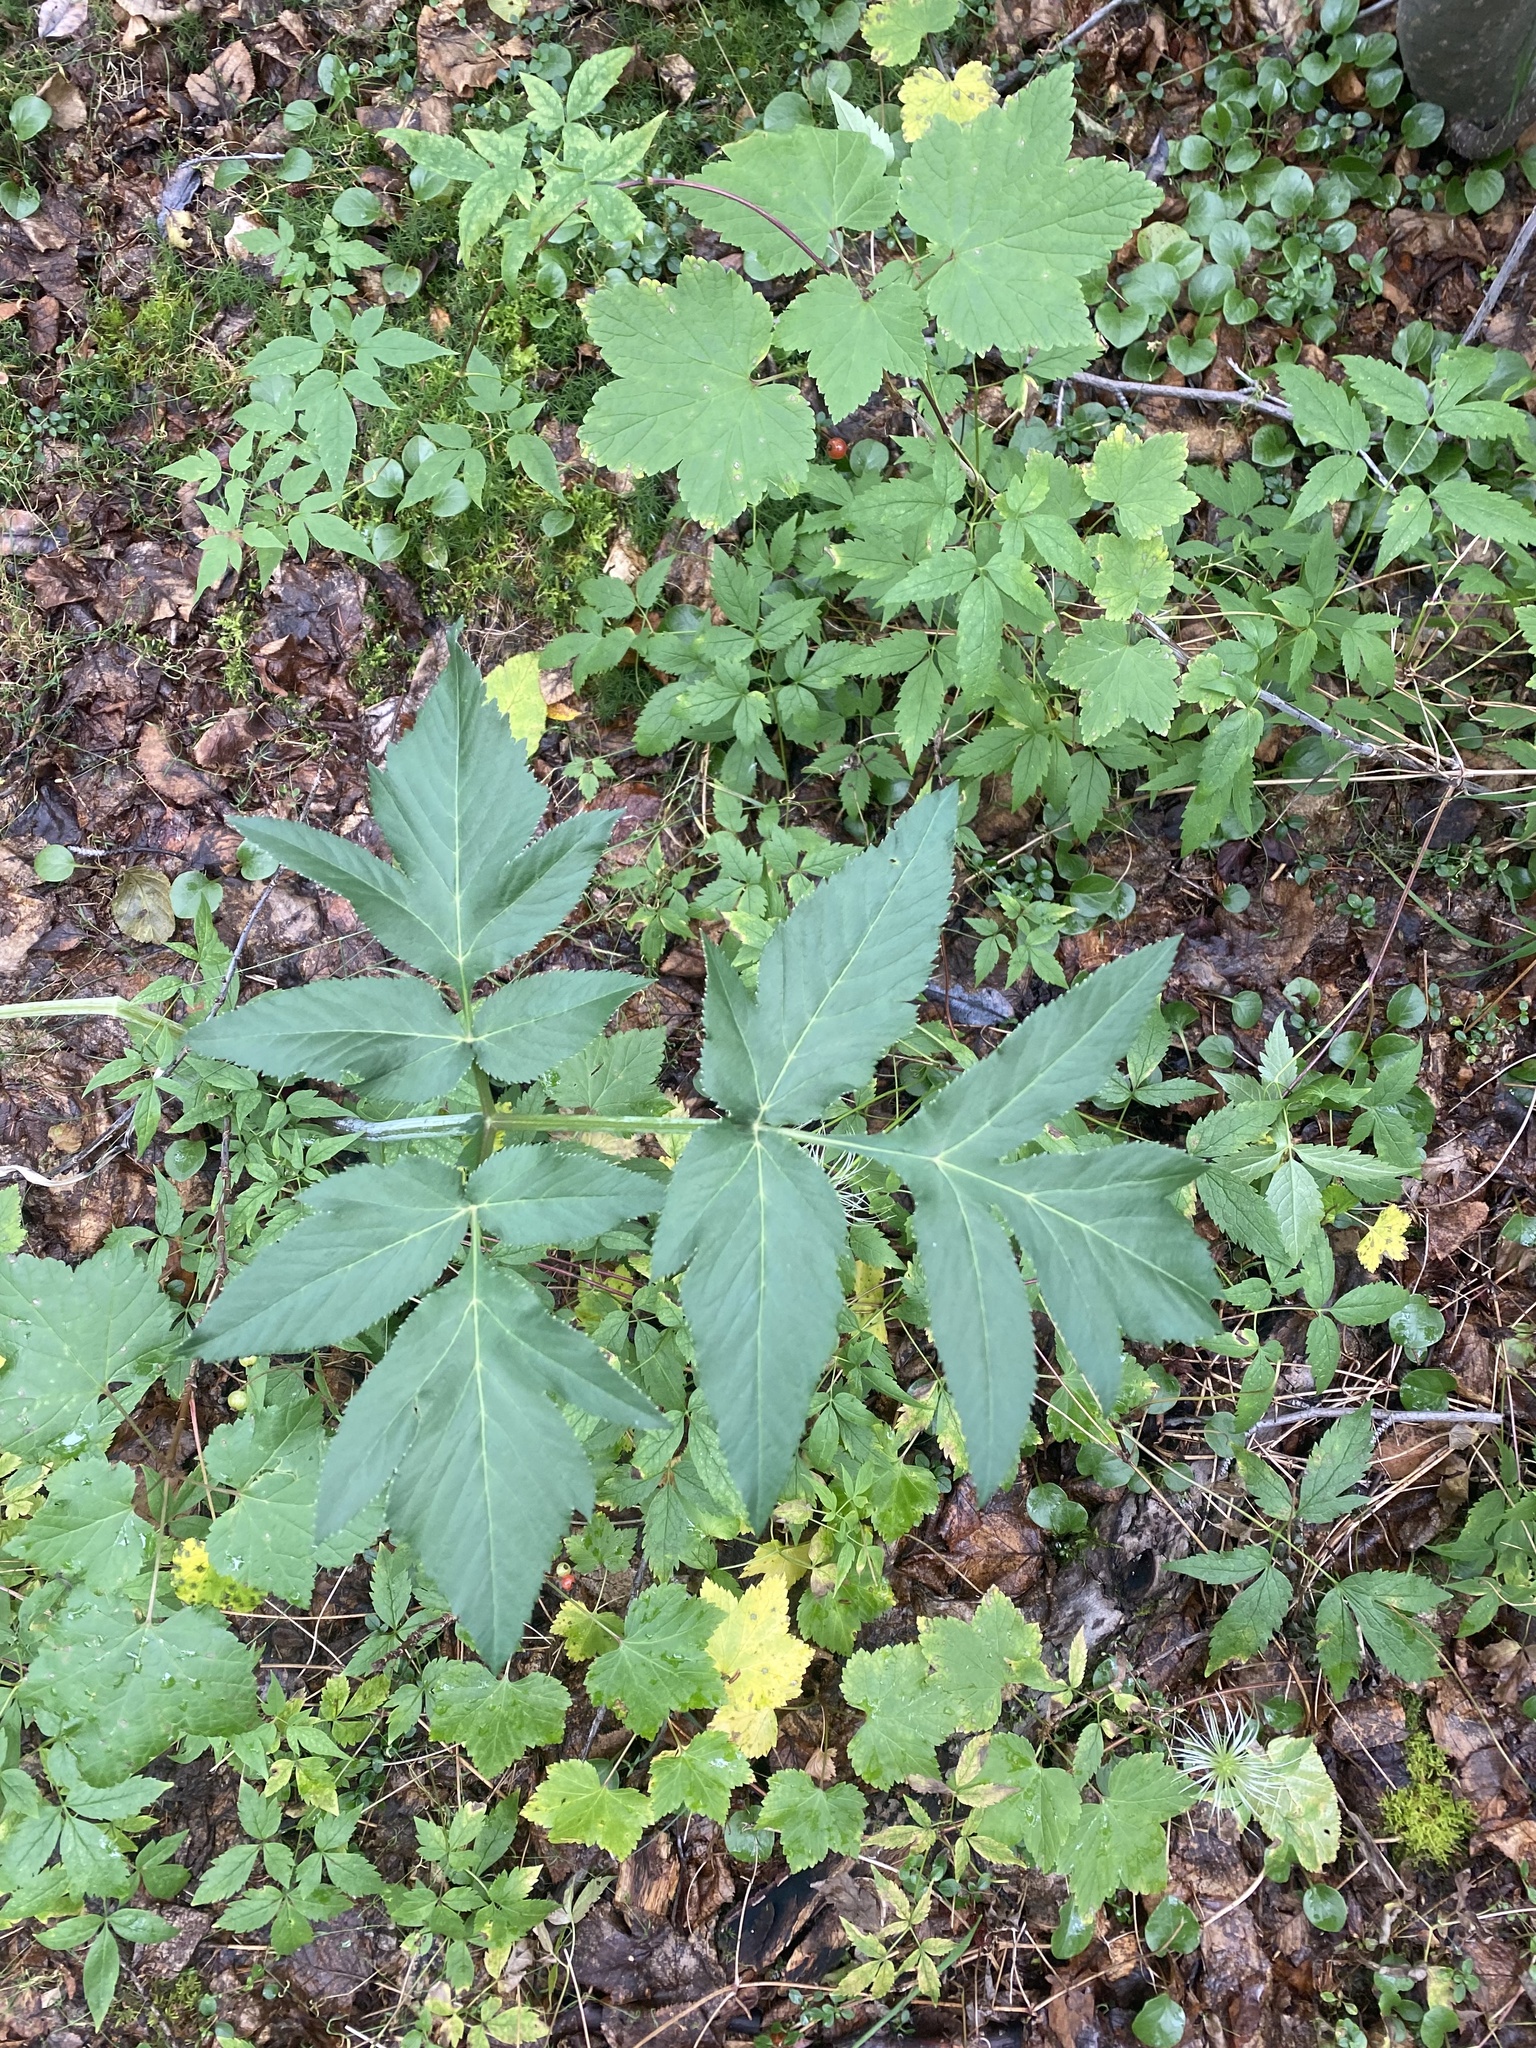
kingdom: Plantae
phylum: Tracheophyta
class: Magnoliopsida
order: Apiales
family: Apiaceae
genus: Angelica
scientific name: Angelica decurrens
